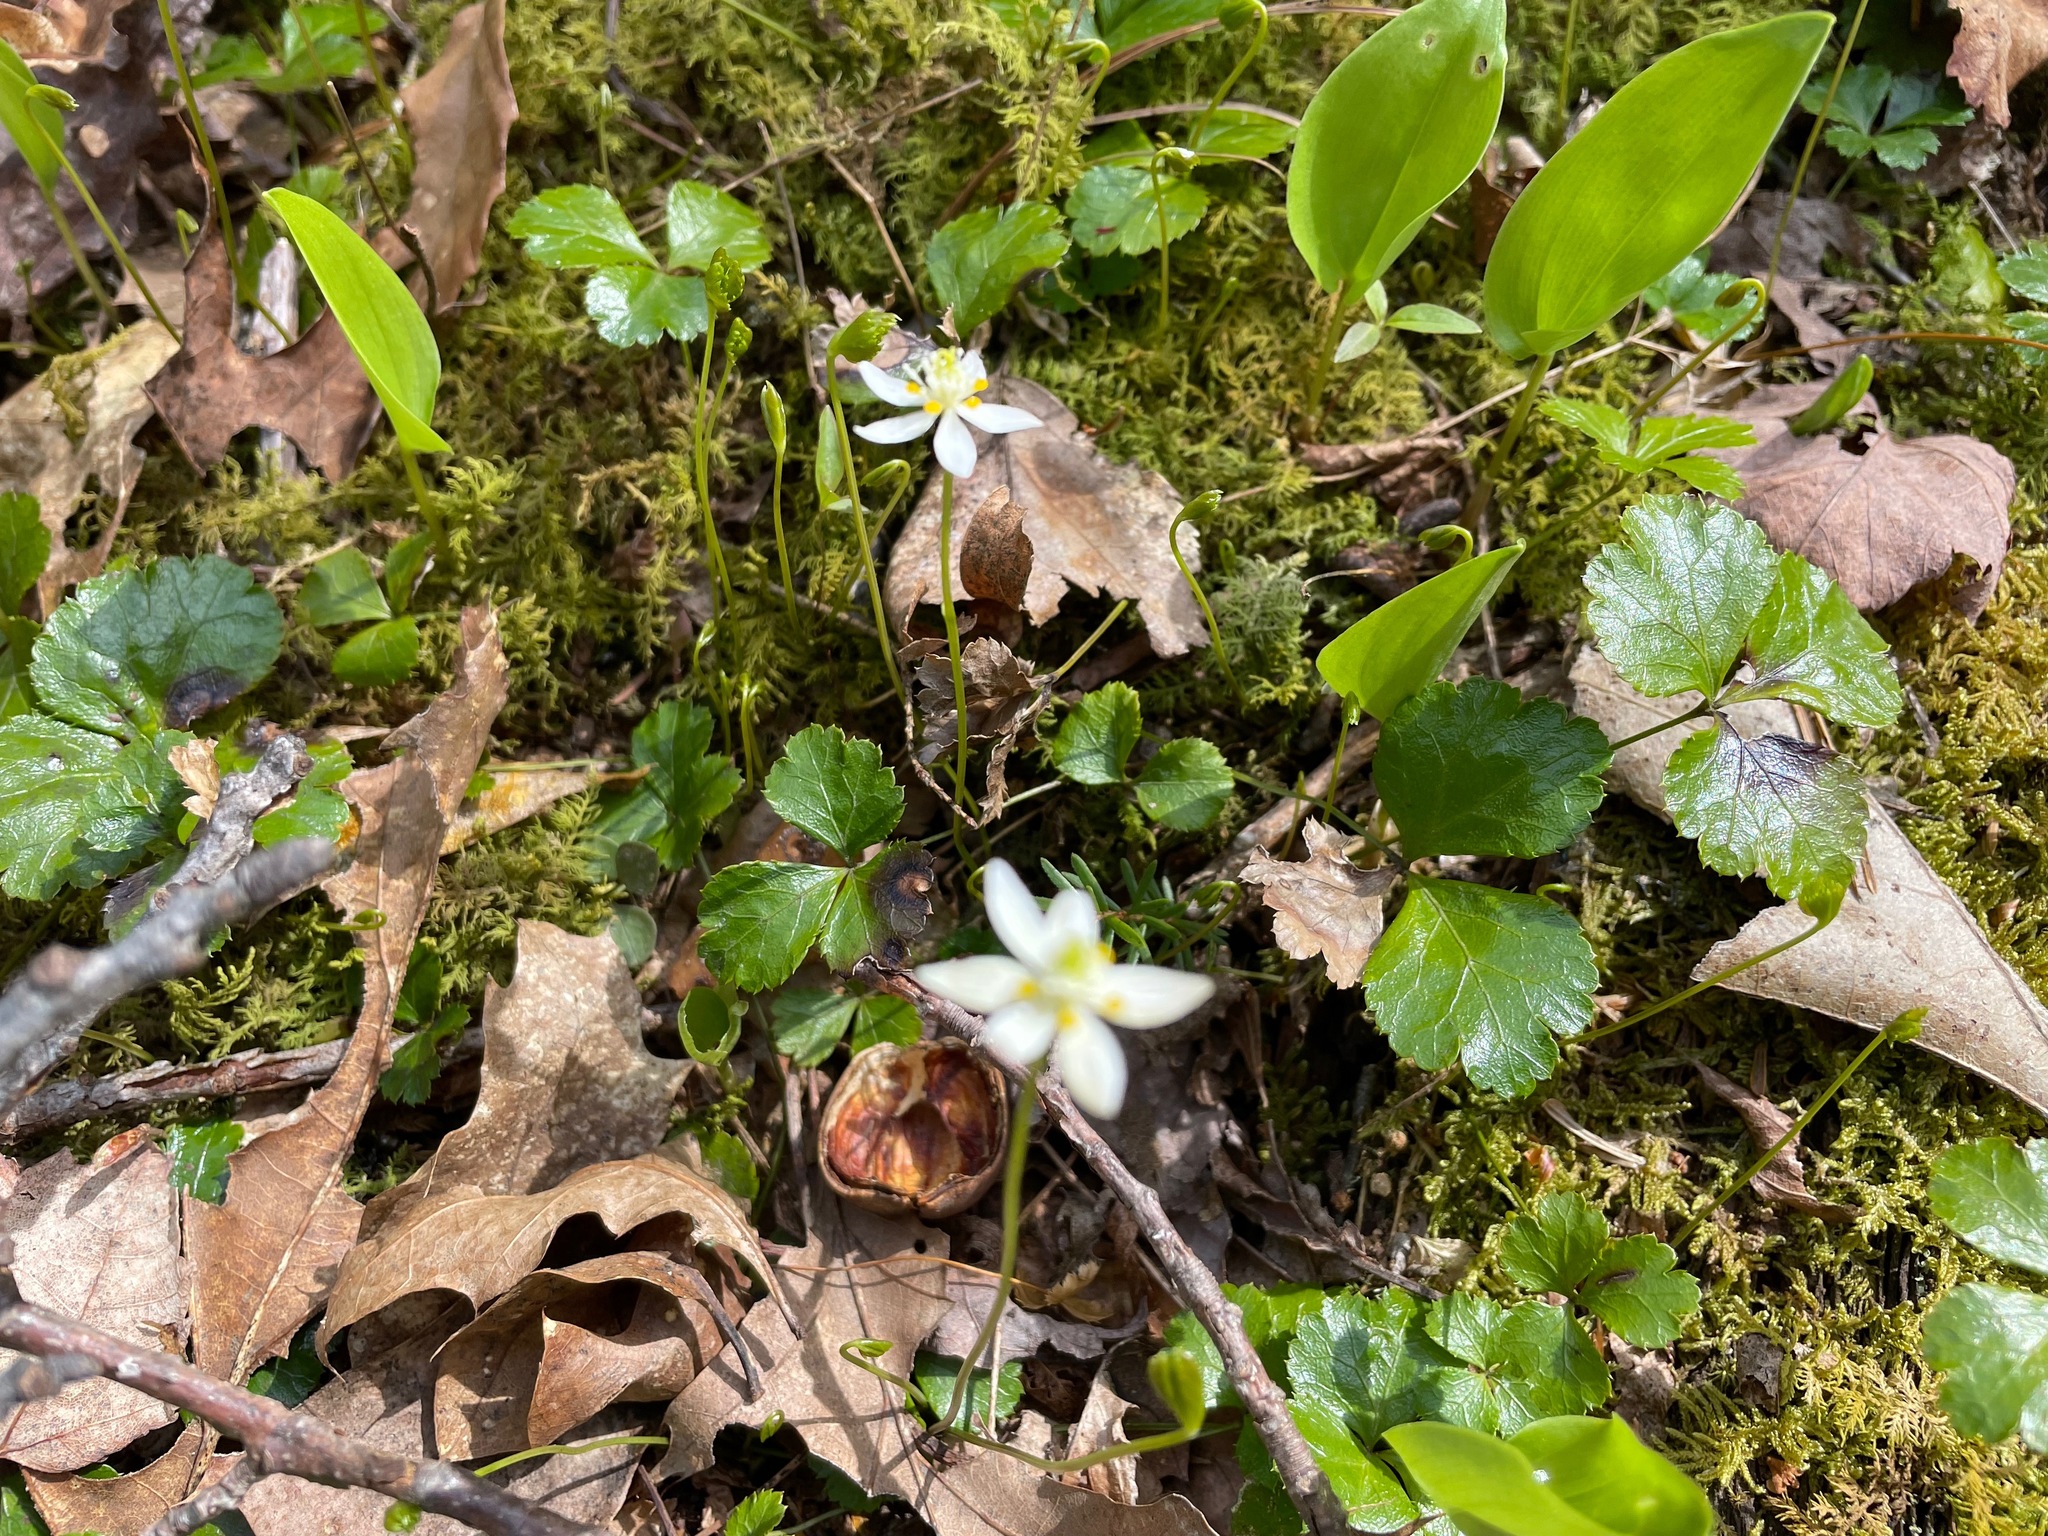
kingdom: Plantae
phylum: Tracheophyta
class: Magnoliopsida
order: Ranunculales
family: Ranunculaceae
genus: Coptis
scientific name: Coptis trifolia
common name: Canker-root
